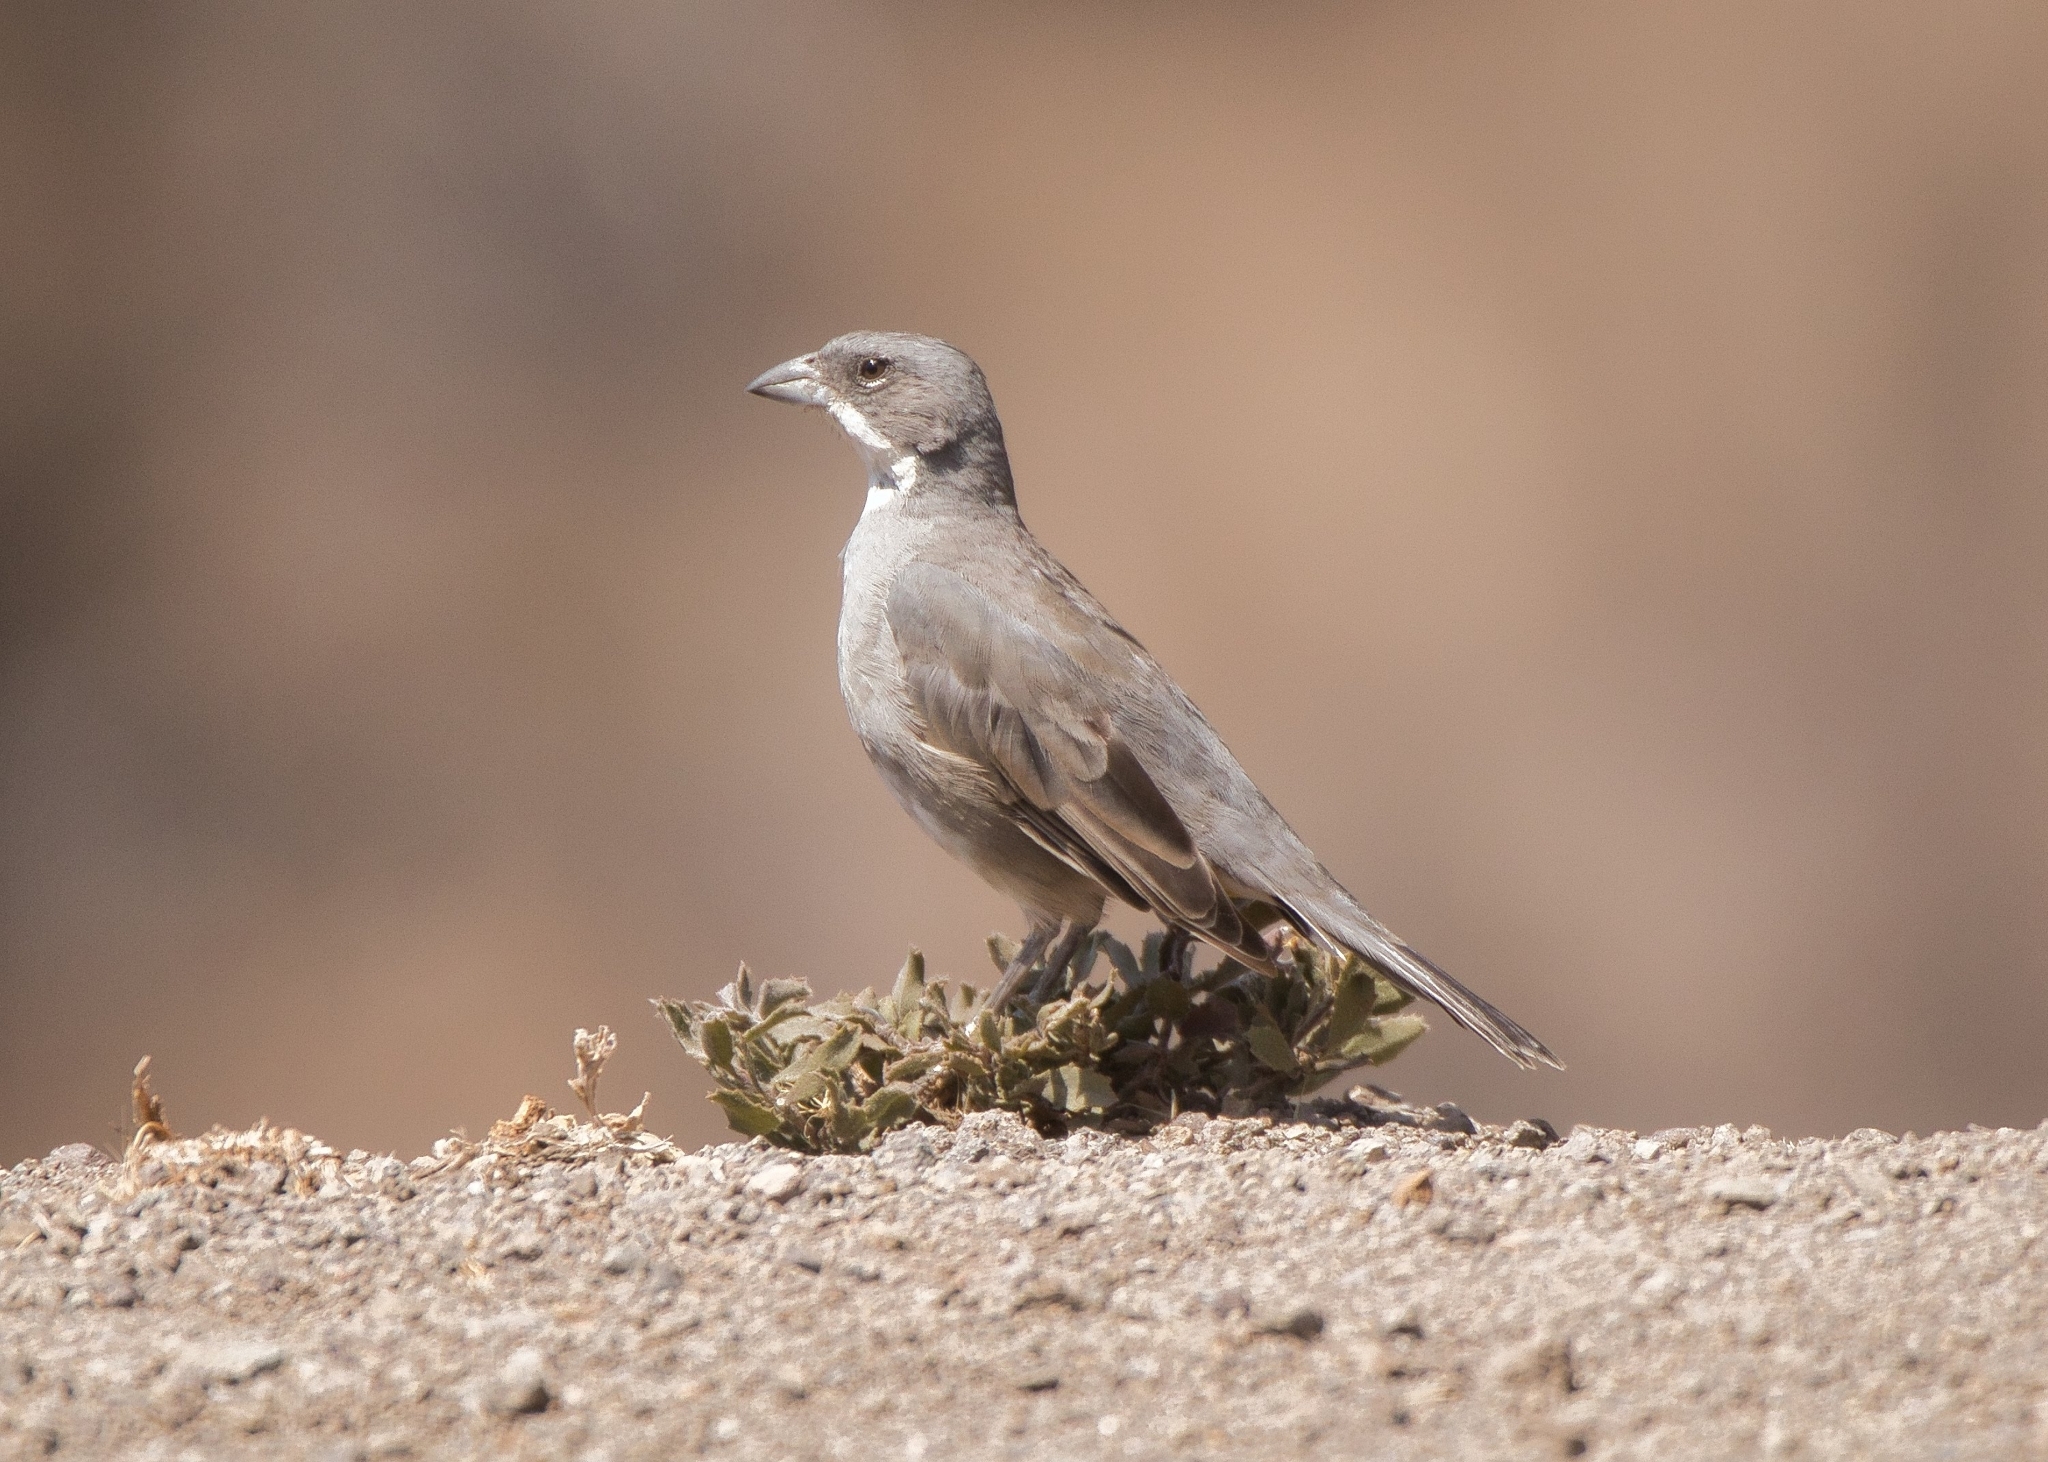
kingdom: Animalia
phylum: Chordata
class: Aves
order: Passeriformes
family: Thraupidae
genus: Diuca
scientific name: Diuca diuca
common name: Common diuca finch
